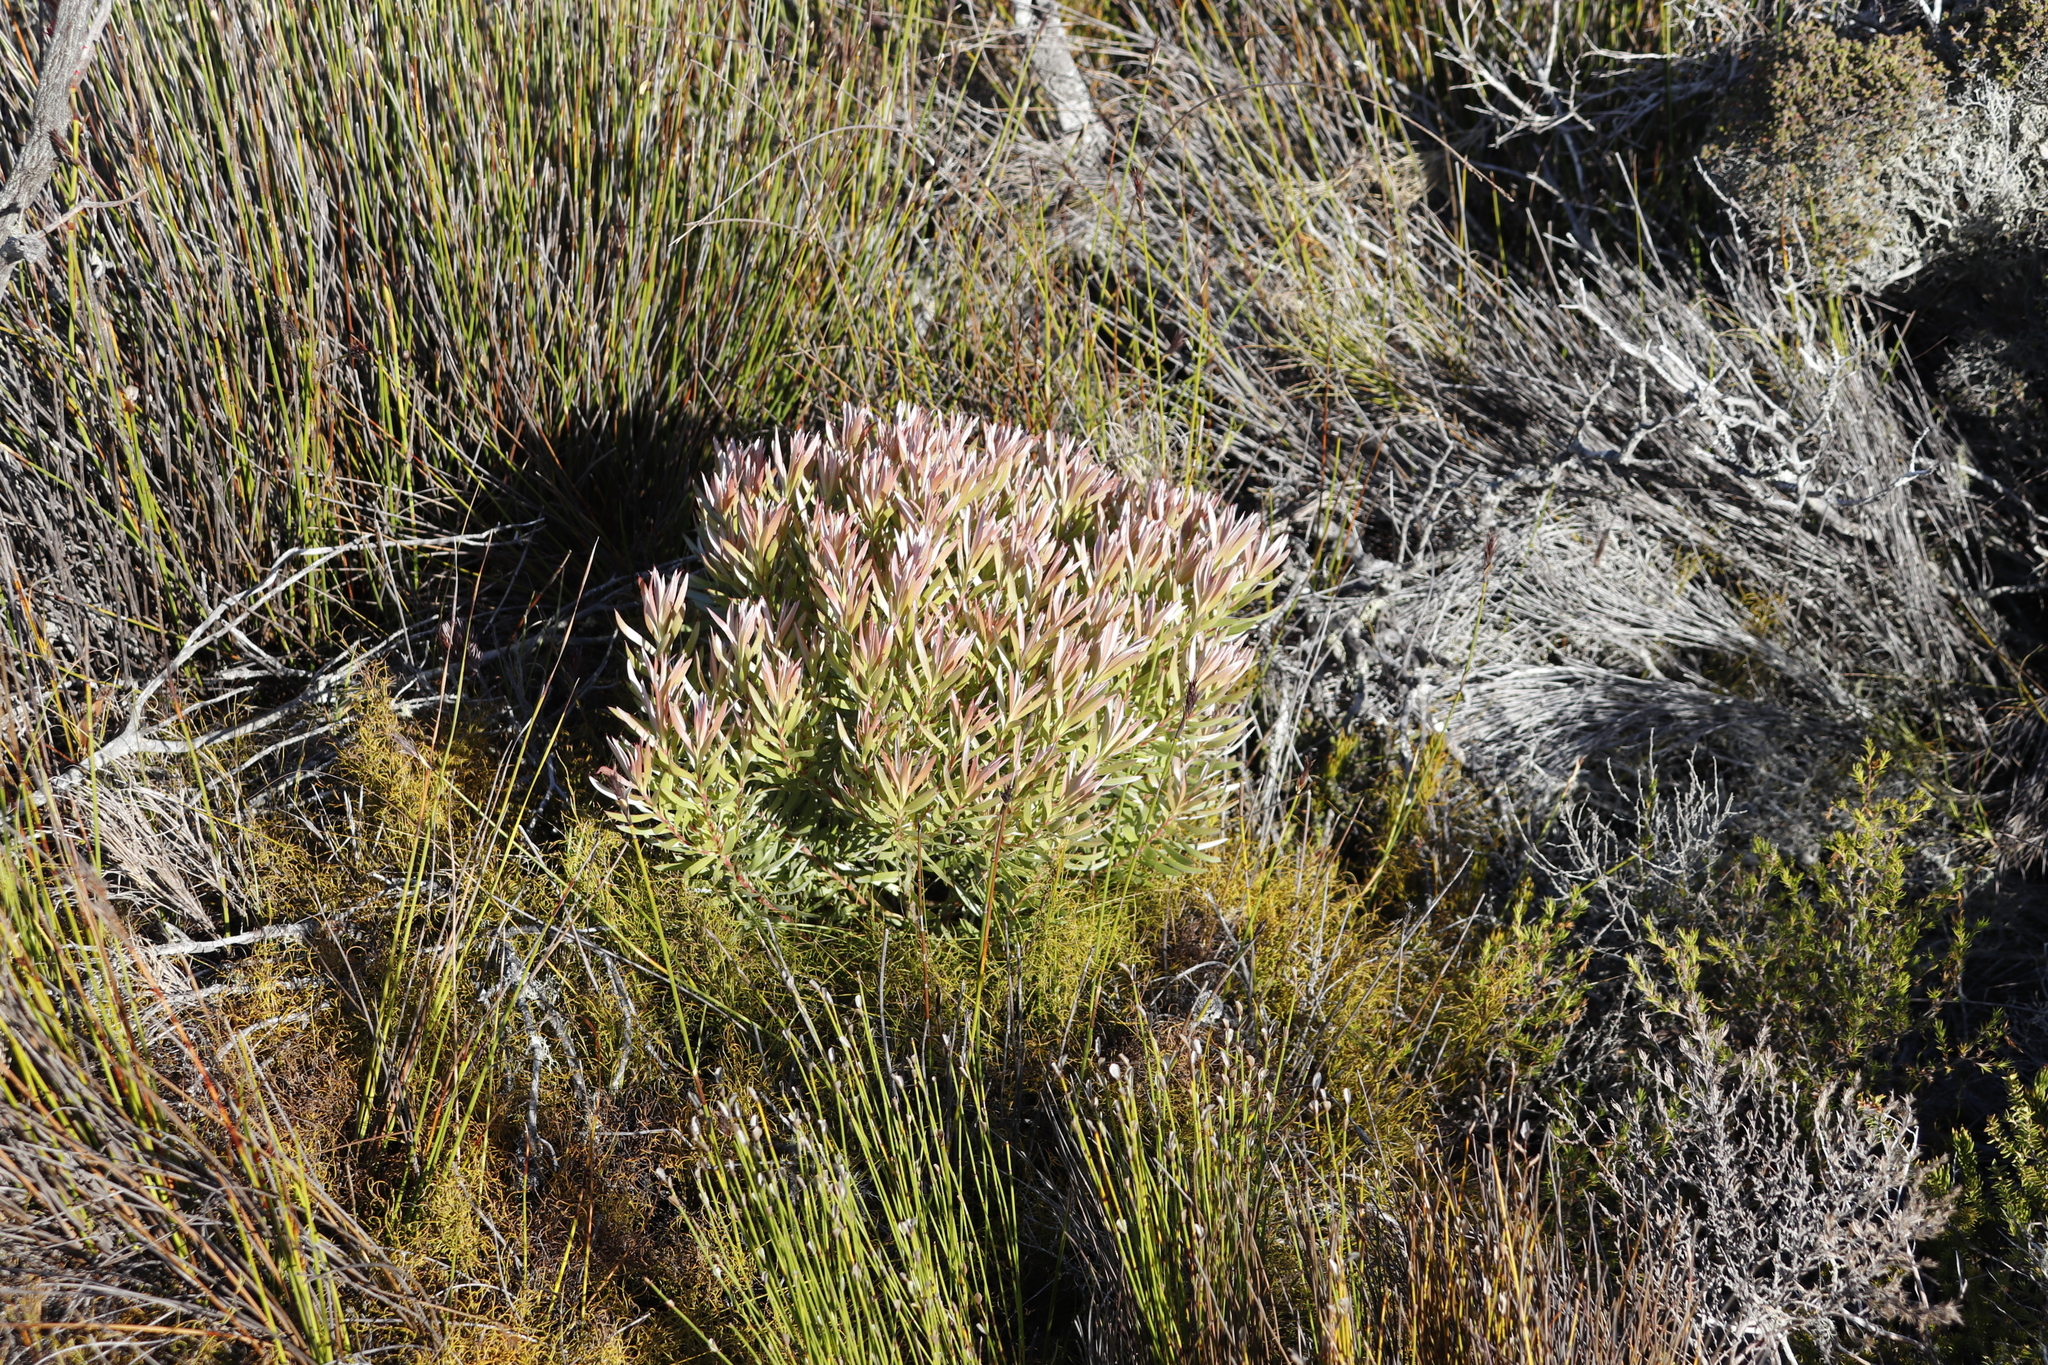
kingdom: Plantae
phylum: Tracheophyta
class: Magnoliopsida
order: Proteales
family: Proteaceae
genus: Leucadendron
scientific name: Leucadendron xanthoconus
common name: Sickle-leaf conebush
